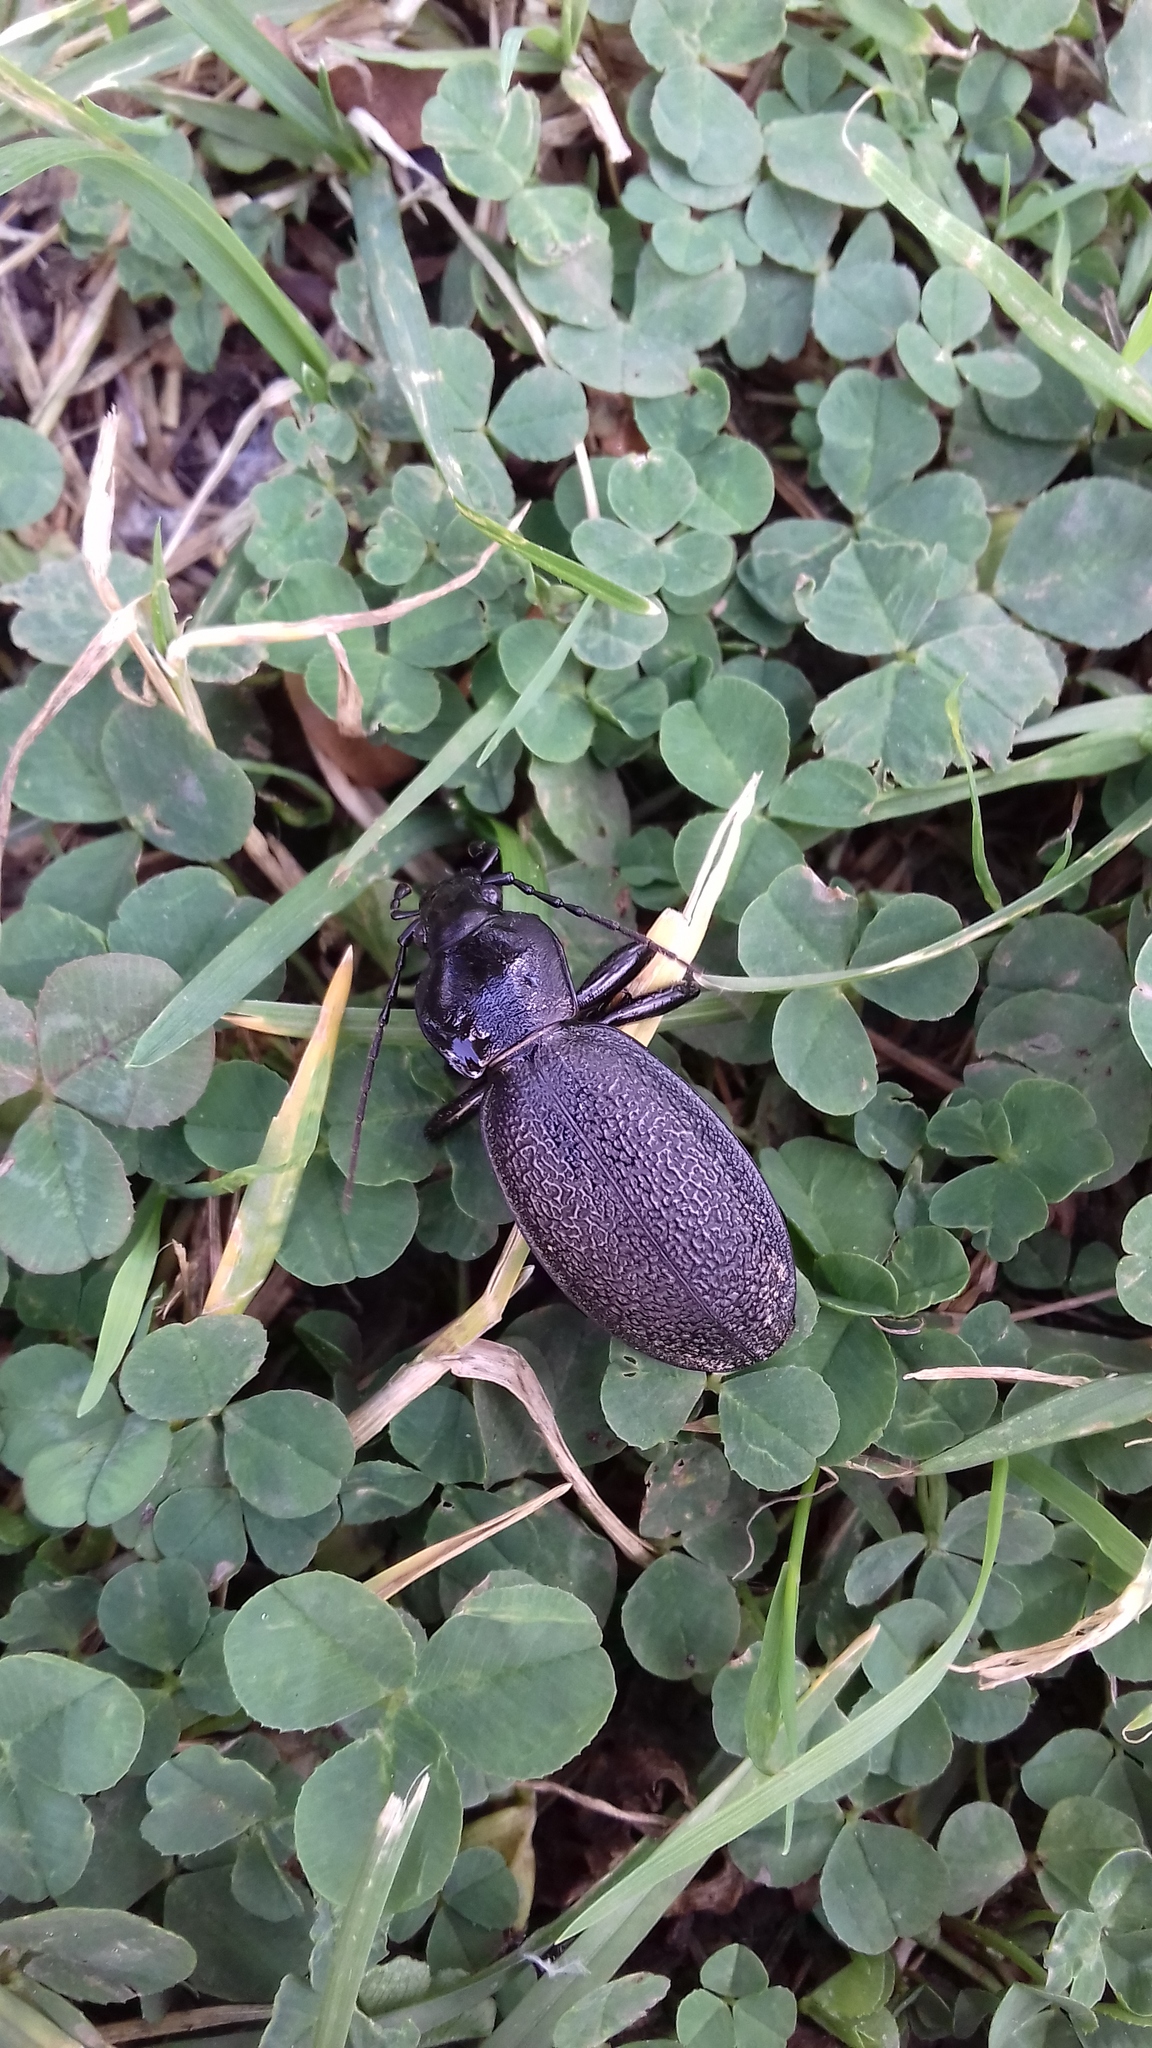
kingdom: Animalia
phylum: Arthropoda
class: Insecta
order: Coleoptera
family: Carabidae
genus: Carabus
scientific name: Carabus coriaceus
